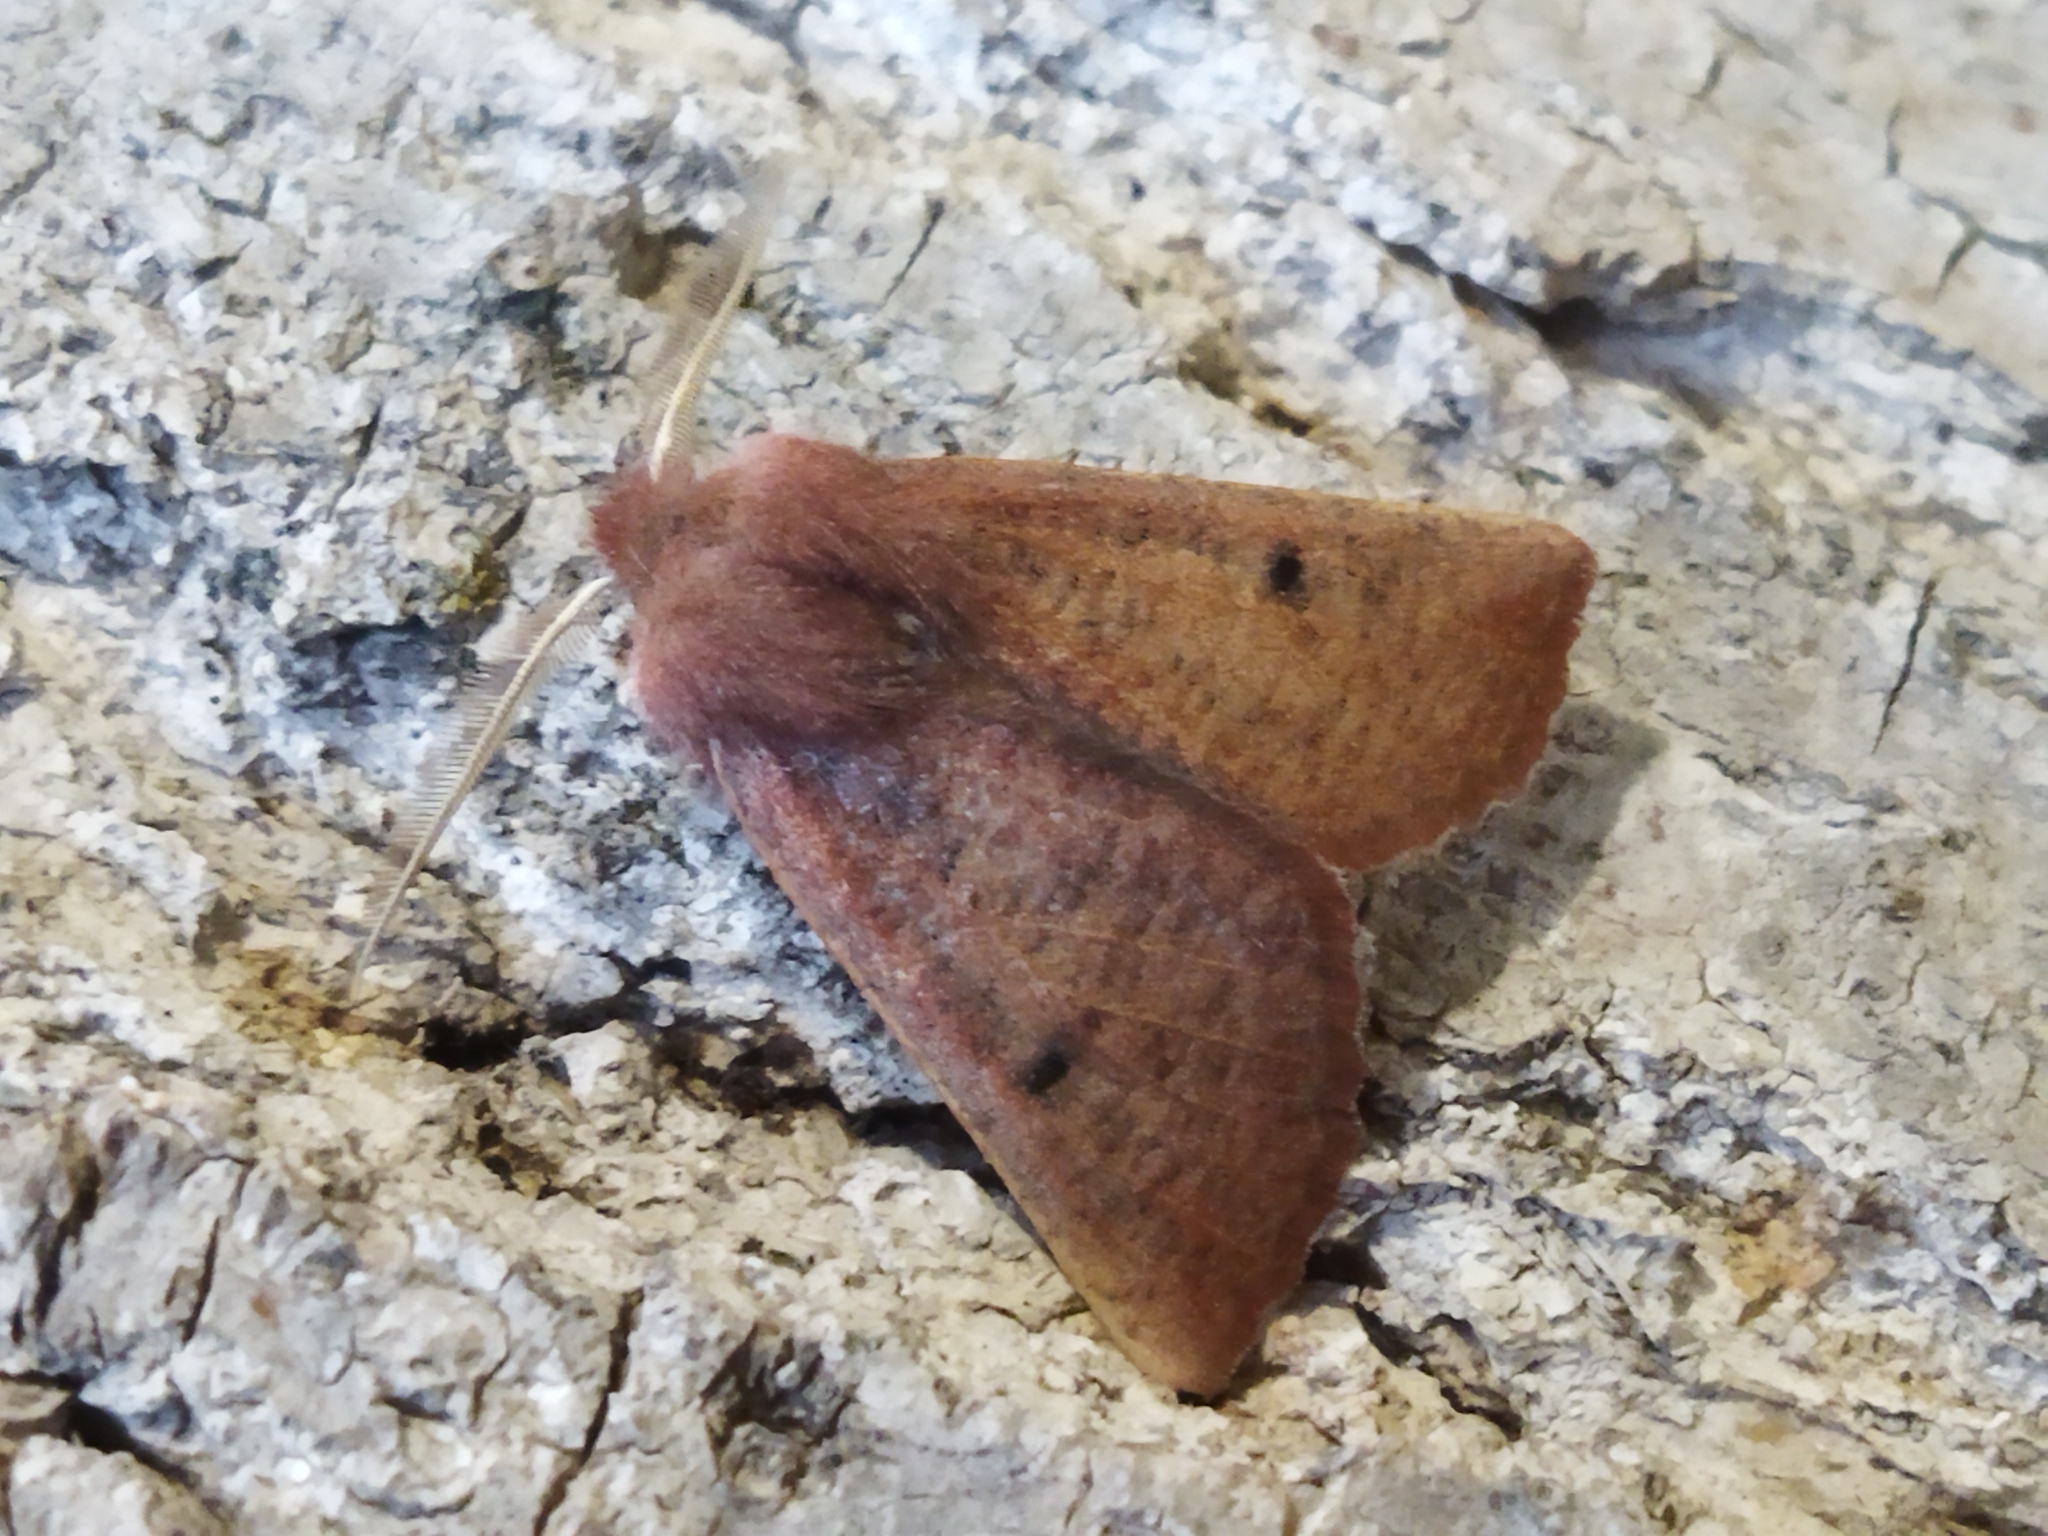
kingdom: Animalia
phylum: Arthropoda
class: Insecta
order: Lepidoptera
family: Geometridae
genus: Dasycorsa
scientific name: Dasycorsa modesta
